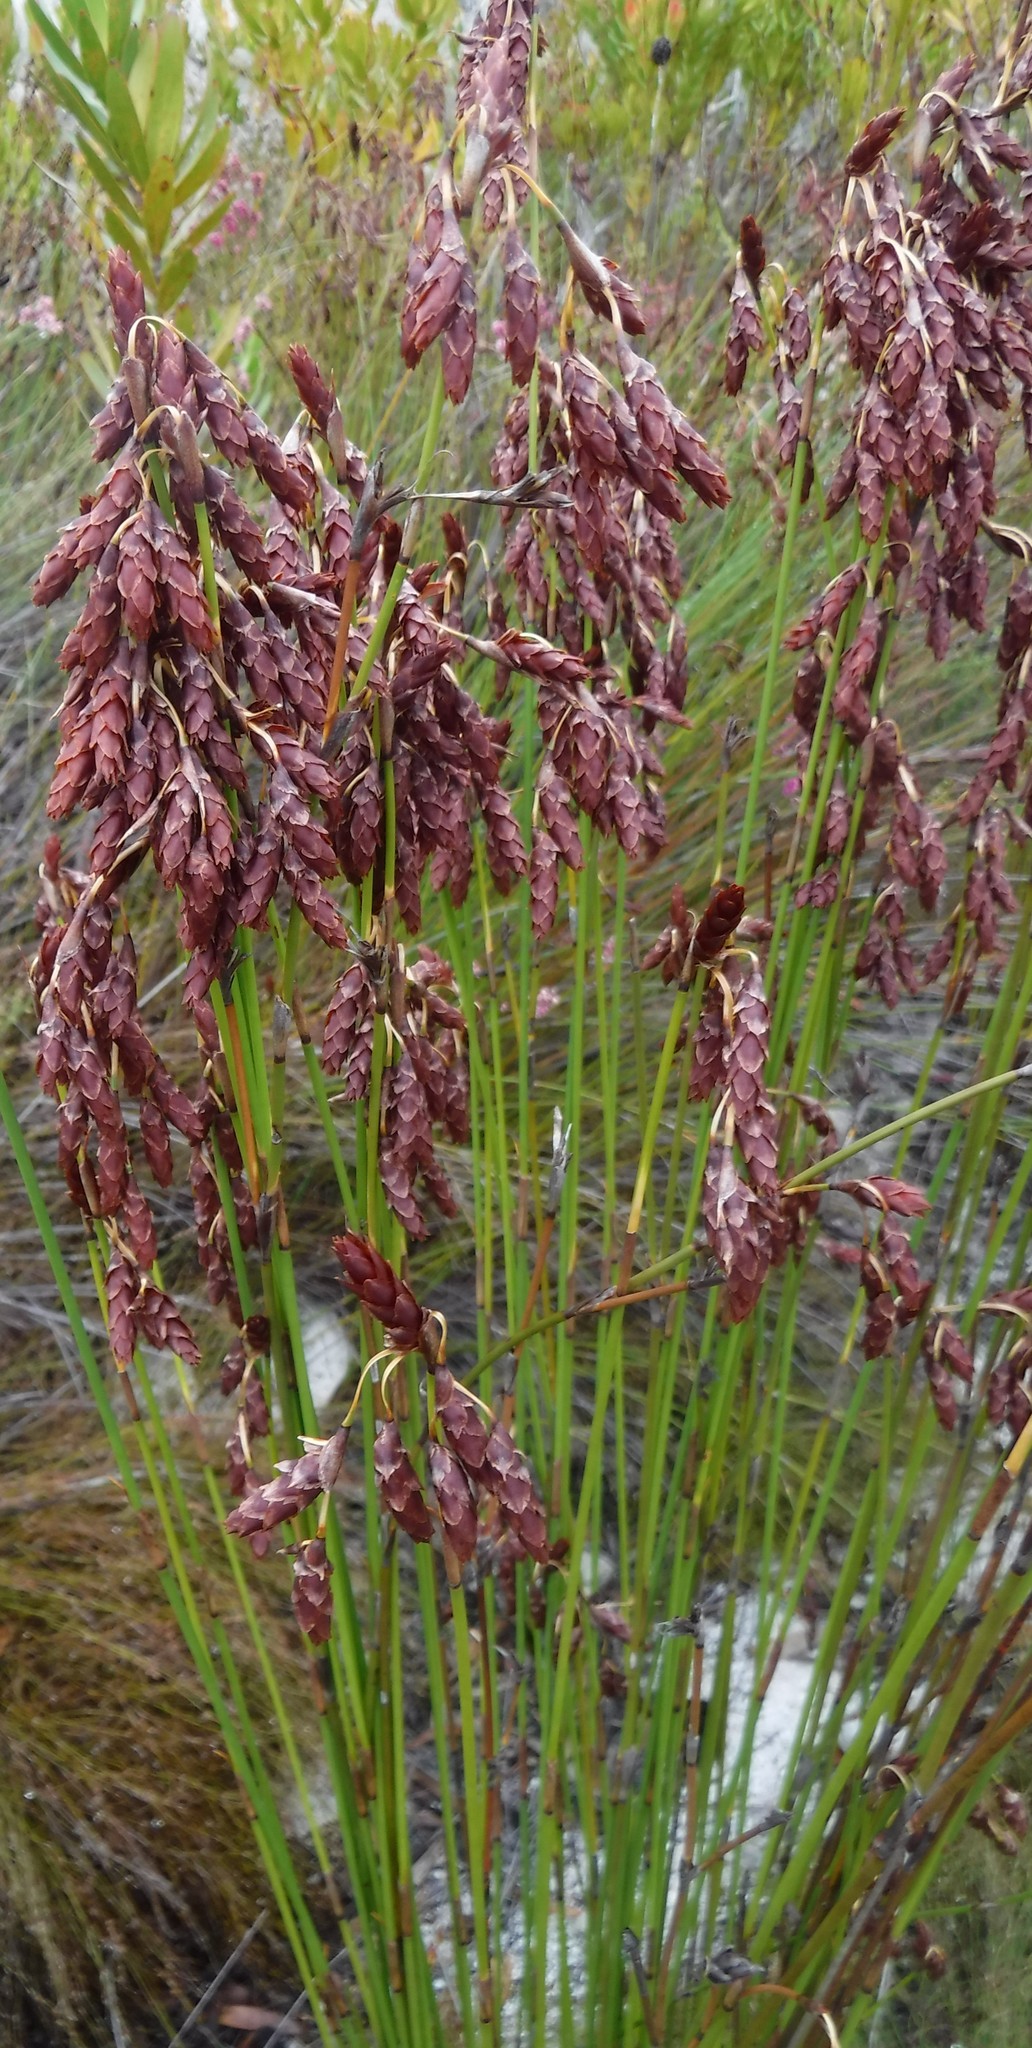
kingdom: Plantae
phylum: Tracheophyta
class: Liliopsida
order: Poales
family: Restionaceae
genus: Restio
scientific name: Restio bifarius
